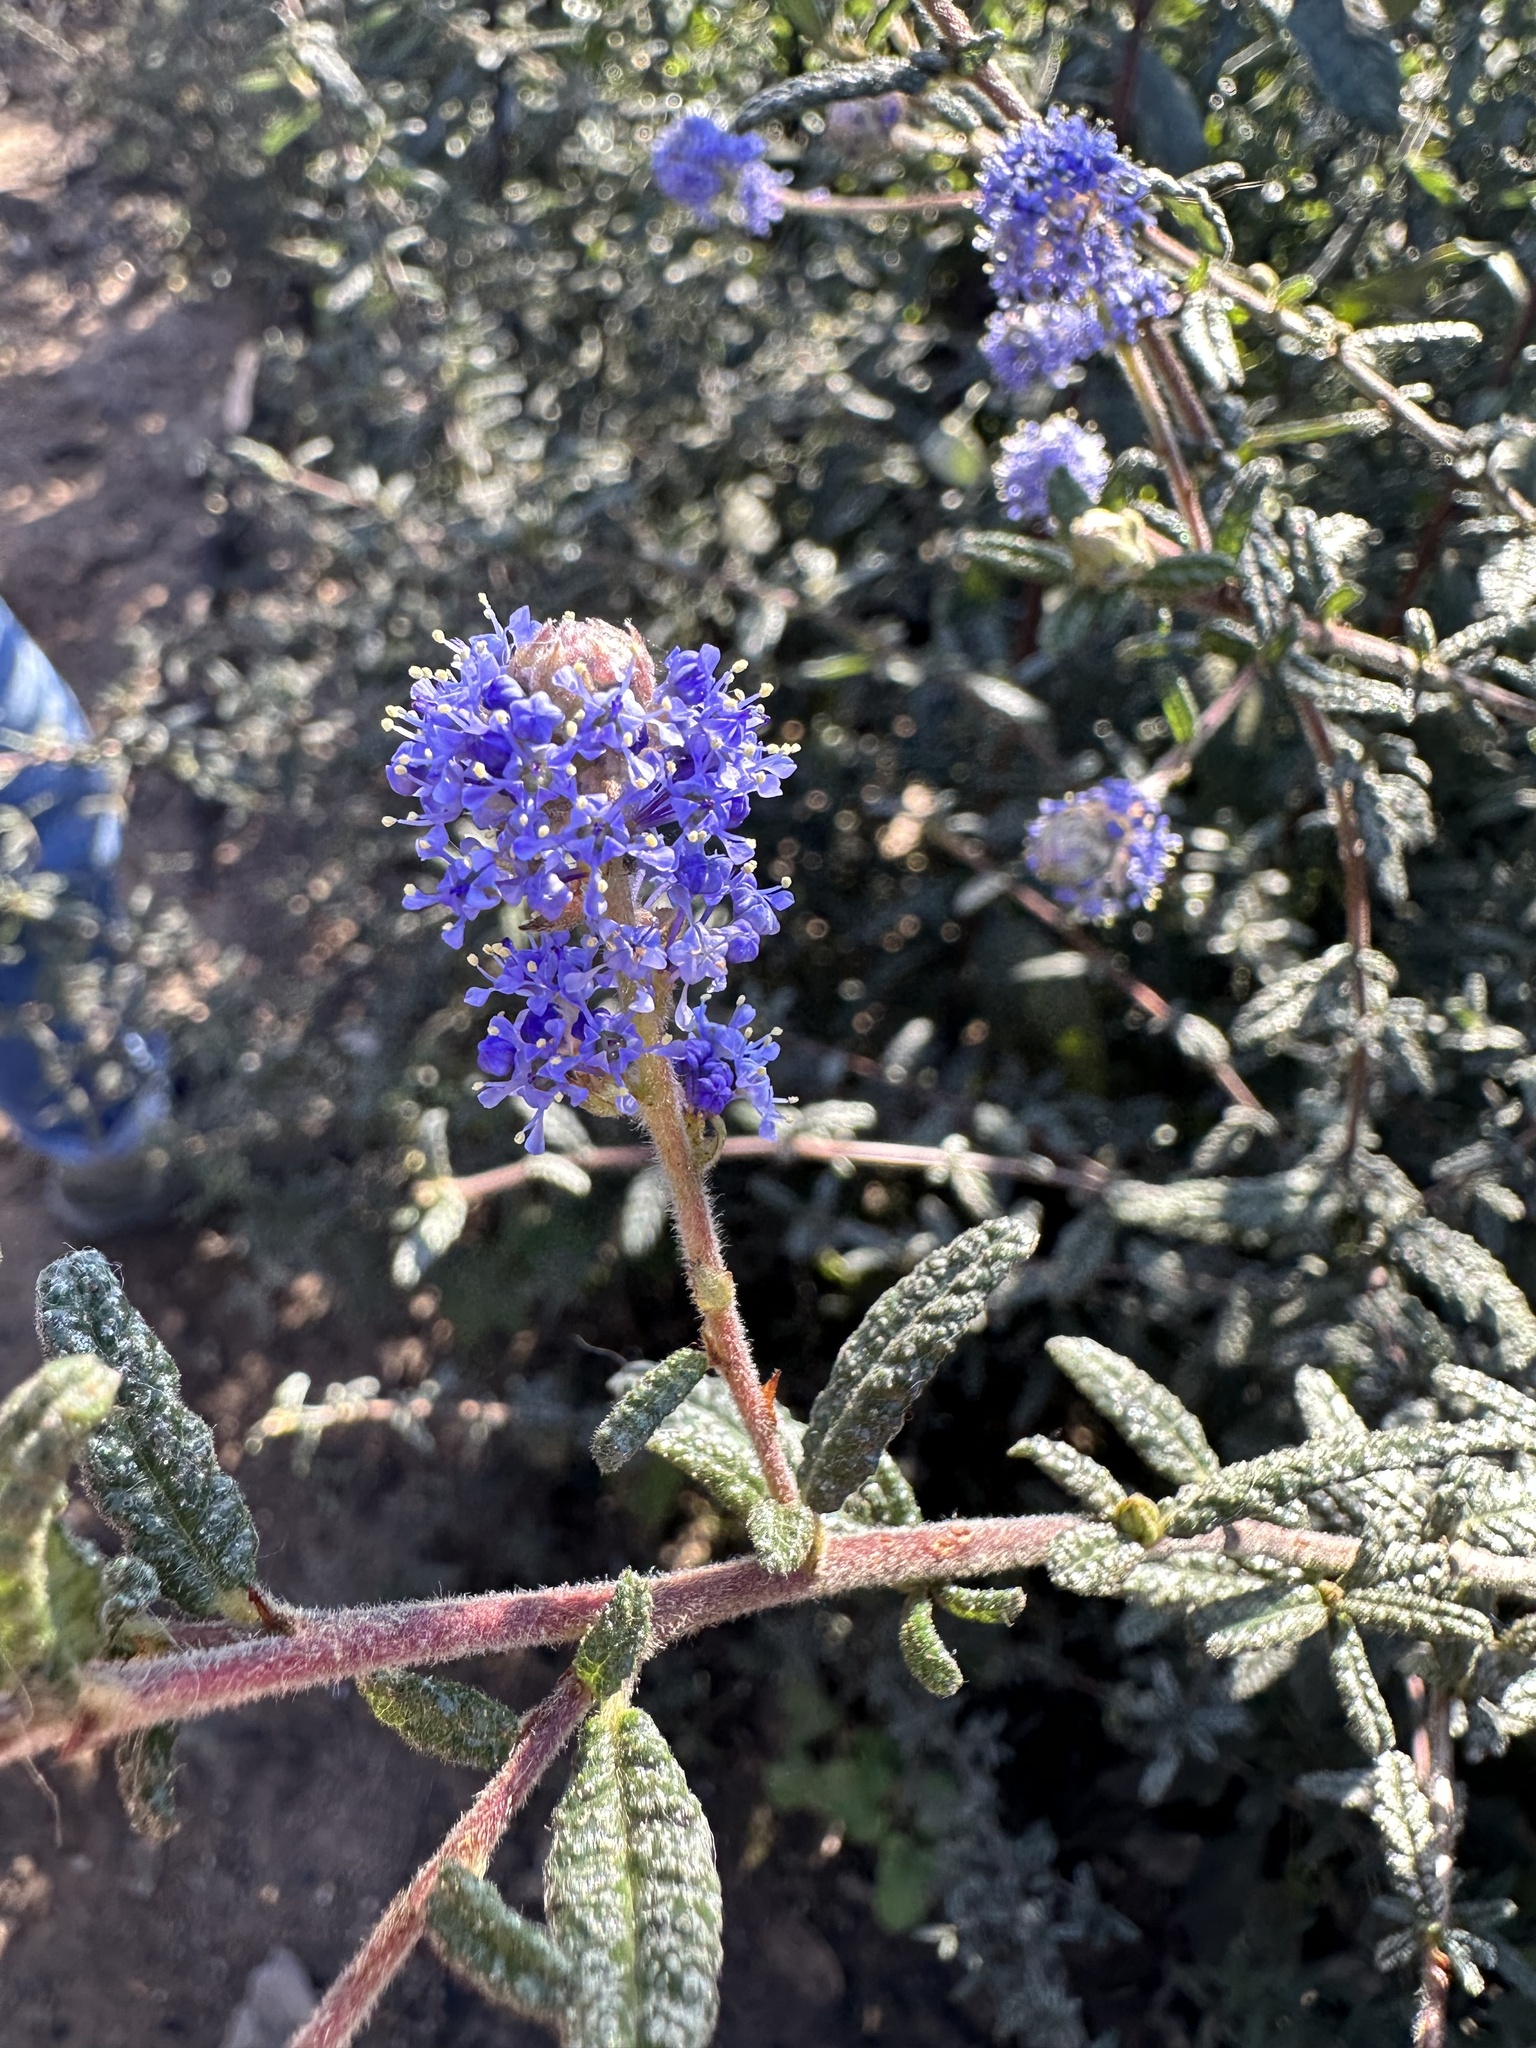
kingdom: Plantae
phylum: Tracheophyta
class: Magnoliopsida
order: Rosales
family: Rhamnaceae
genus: Ceanothus
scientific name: Ceanothus papillosus
